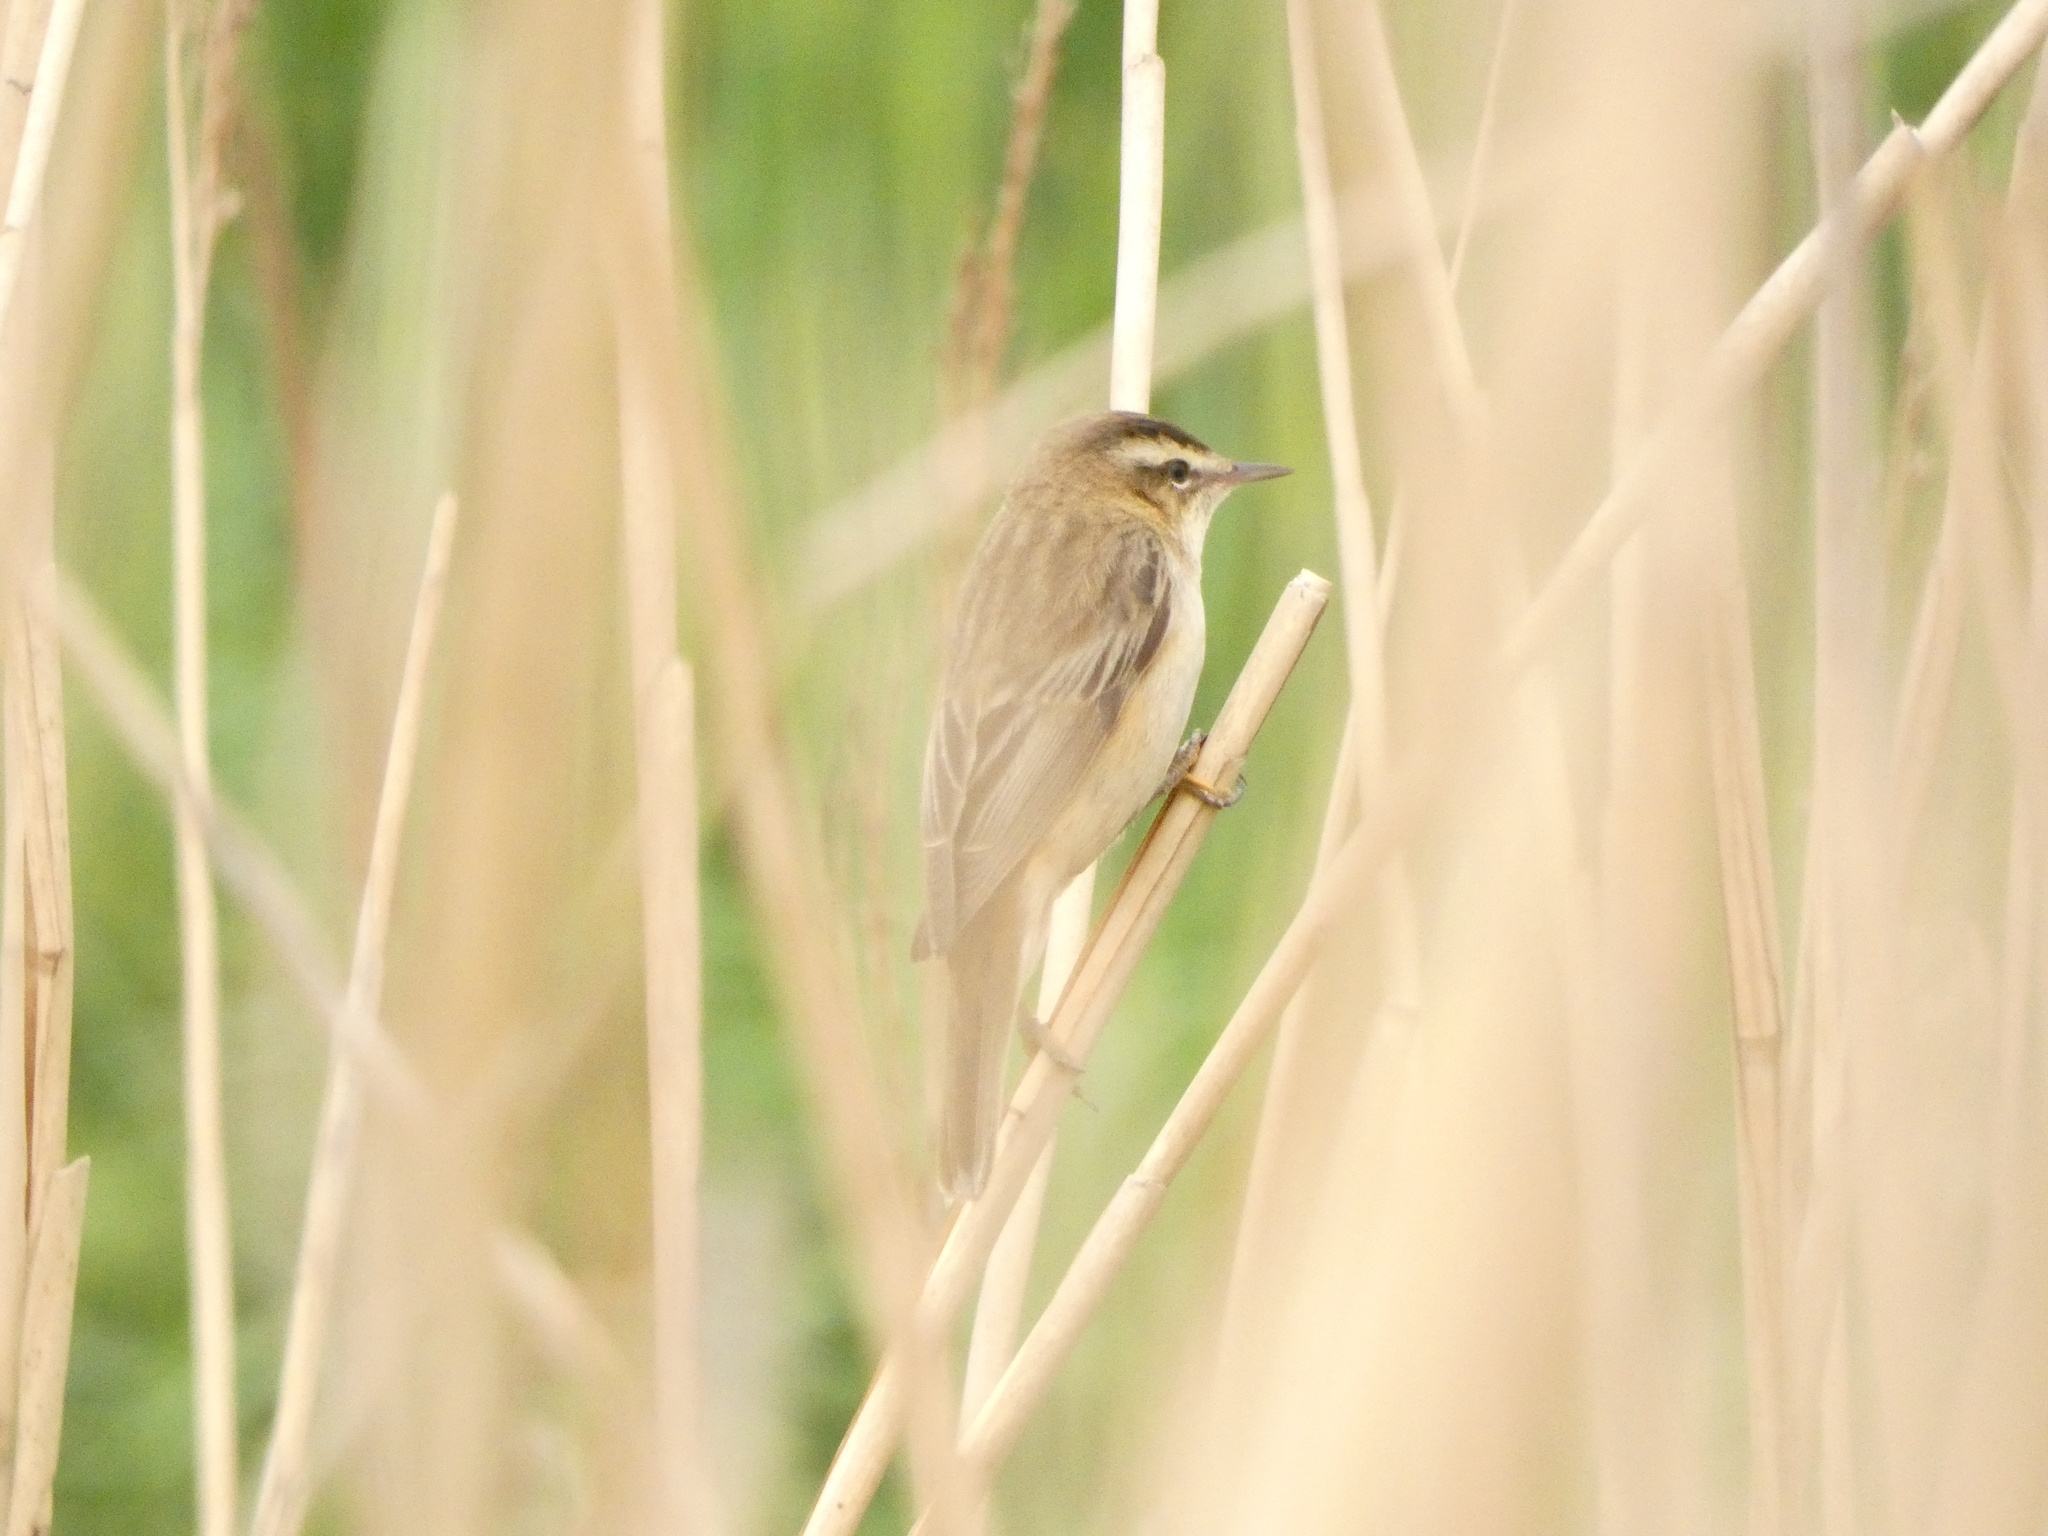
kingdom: Animalia
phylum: Chordata
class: Aves
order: Passeriformes
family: Acrocephalidae
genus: Acrocephalus
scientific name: Acrocephalus schoenobaenus
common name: Sedge warbler
